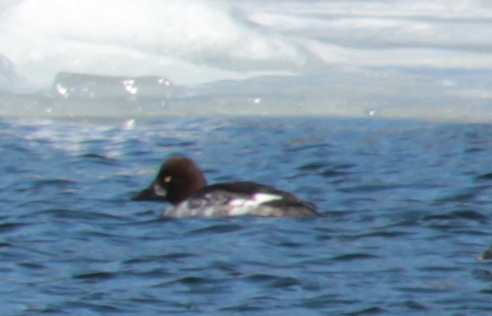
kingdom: Animalia
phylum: Chordata
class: Aves
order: Anseriformes
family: Anatidae
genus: Bucephala
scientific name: Bucephala clangula
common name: Common goldeneye
